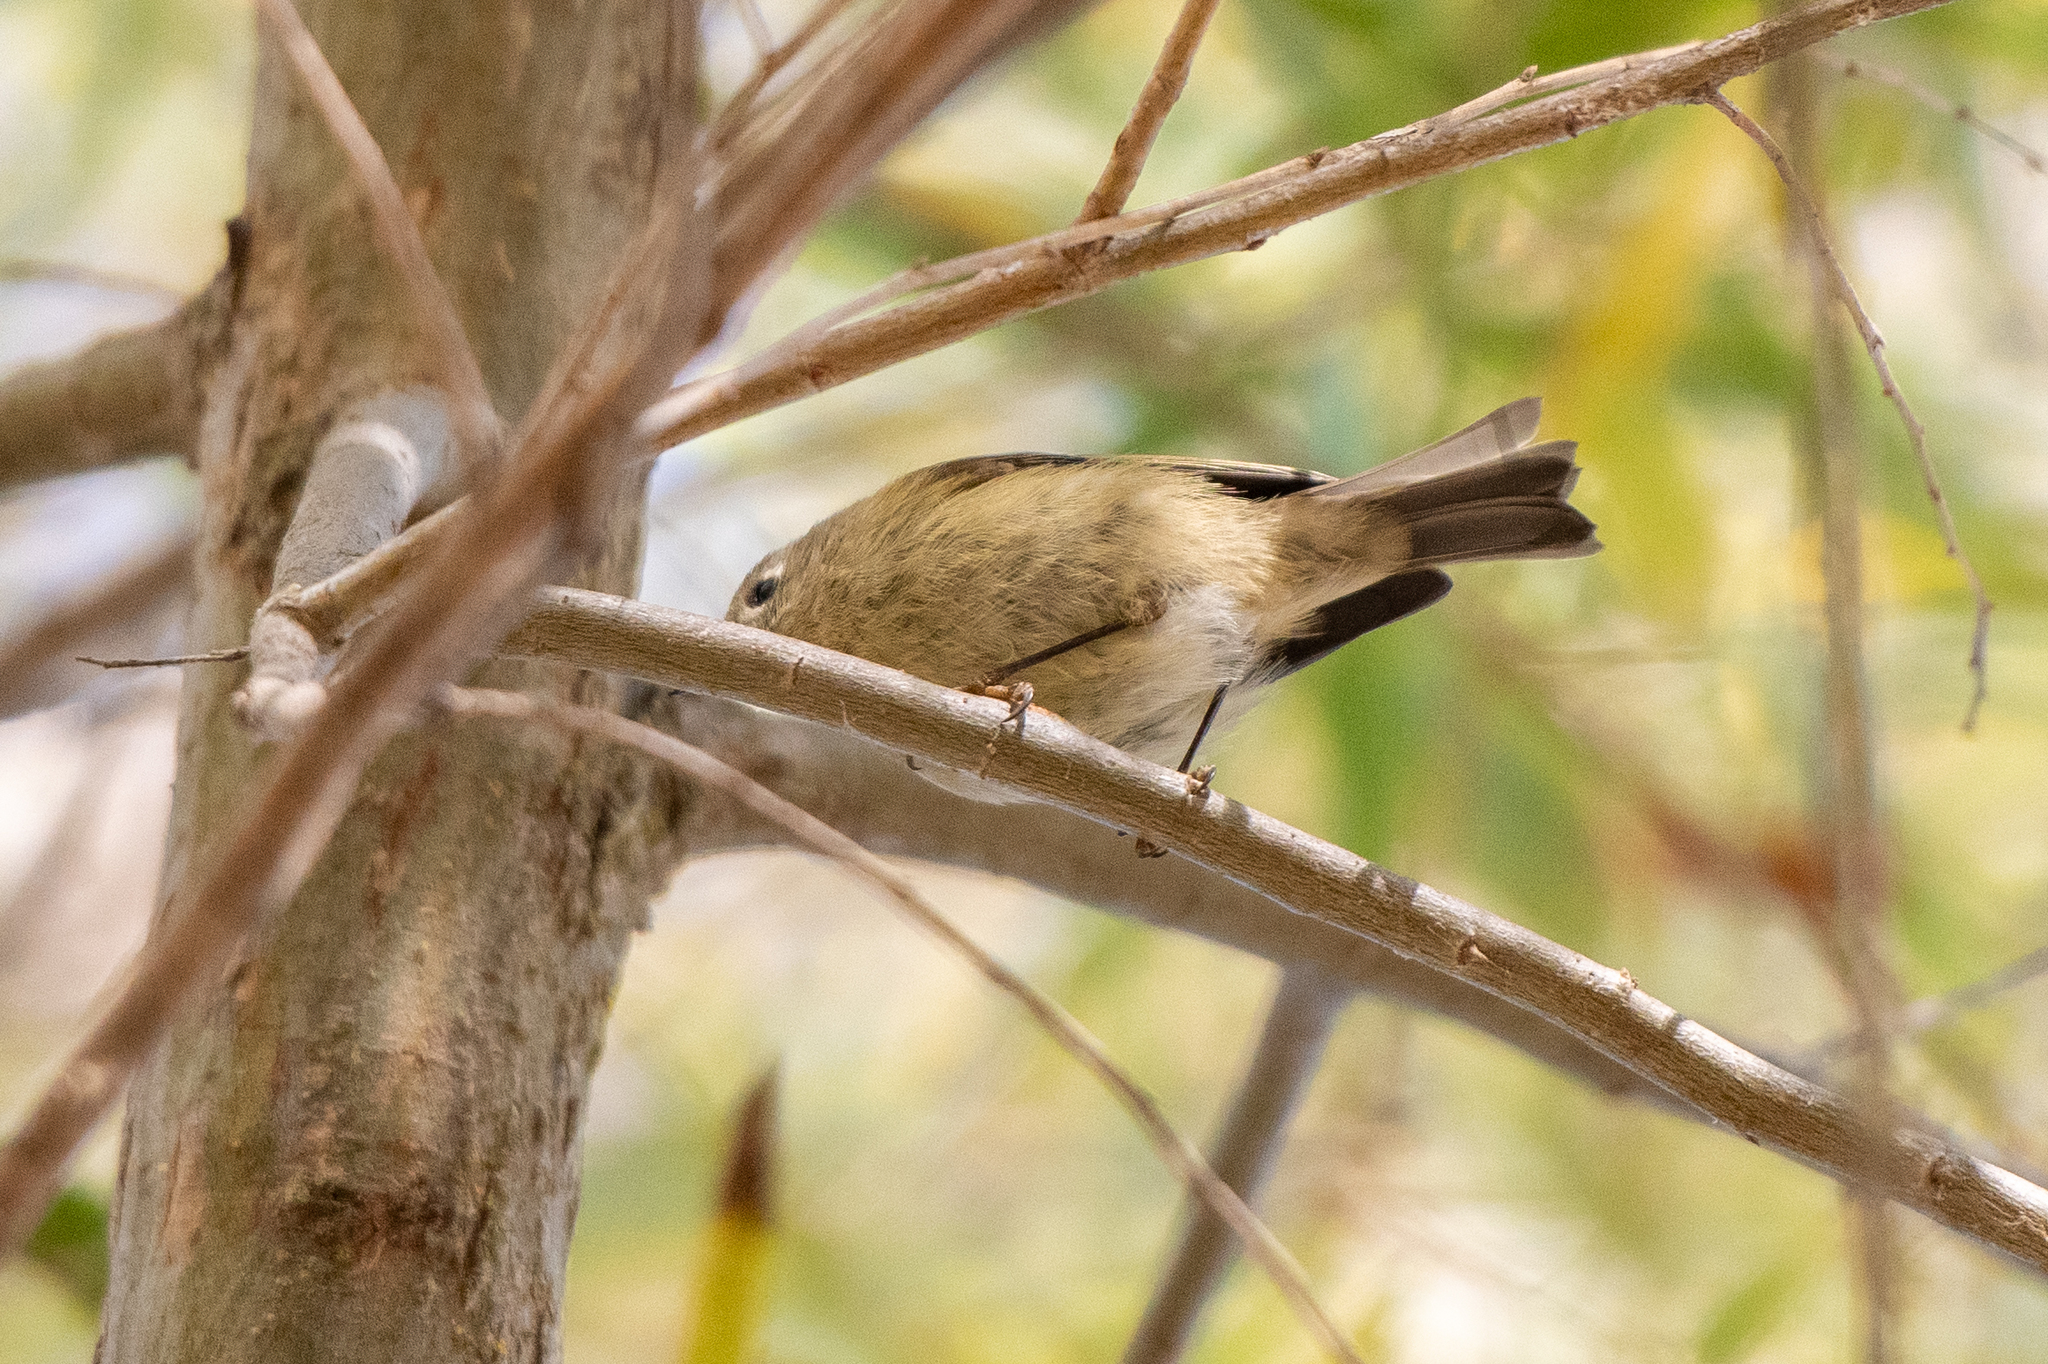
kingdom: Animalia
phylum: Chordata
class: Aves
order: Passeriformes
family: Regulidae
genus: Regulus
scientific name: Regulus calendula
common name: Ruby-crowned kinglet
